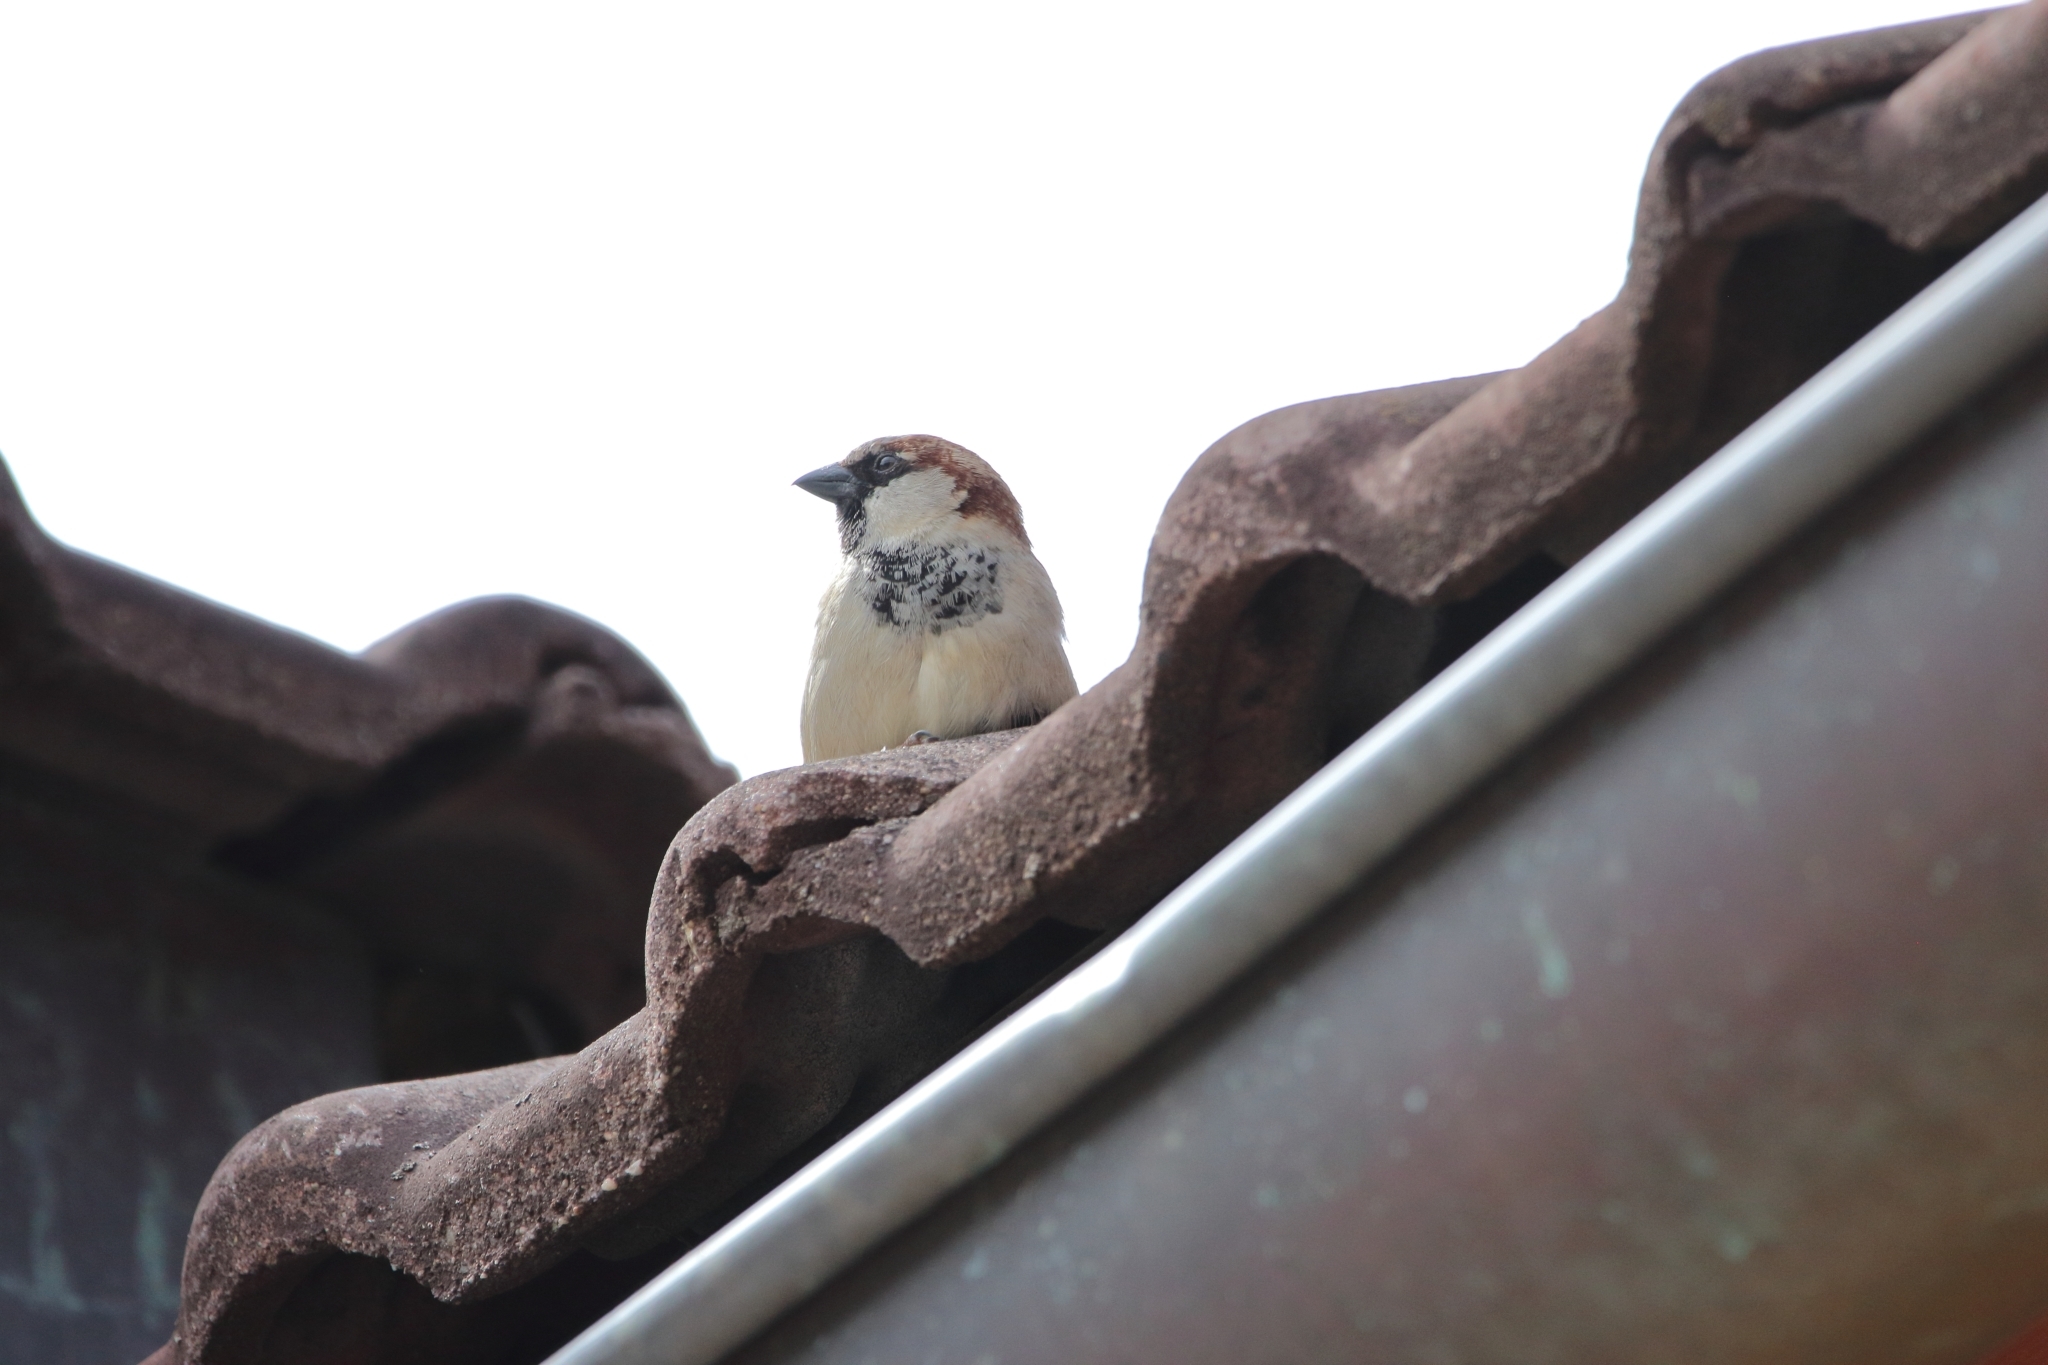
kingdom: Animalia
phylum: Chordata
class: Aves
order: Passeriformes
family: Passeridae
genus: Passer
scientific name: Passer domesticus
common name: House sparrow
